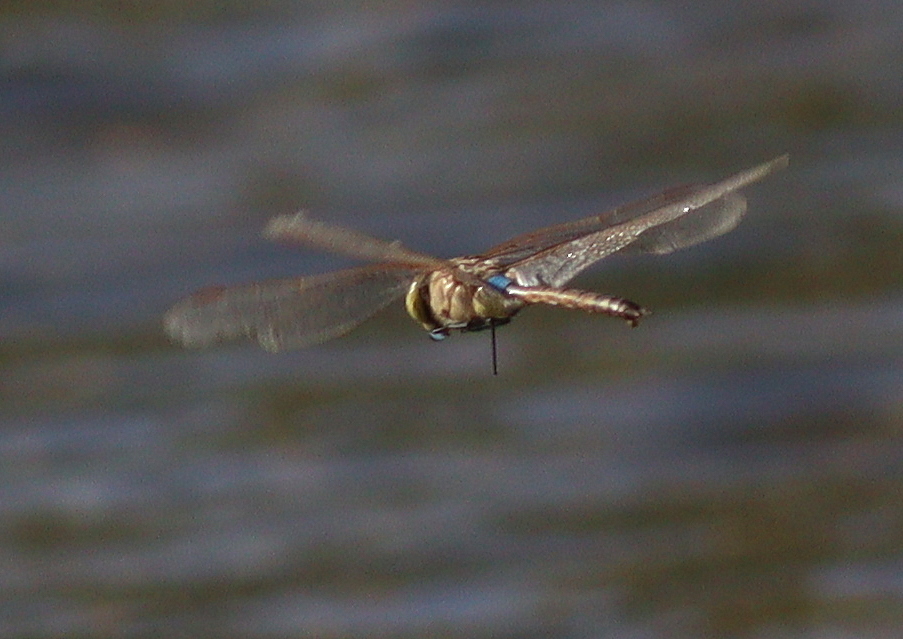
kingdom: Animalia
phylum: Arthropoda
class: Insecta
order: Odonata
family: Aeshnidae
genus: Anax
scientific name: Anax ephippiger
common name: Vagrant emperor
